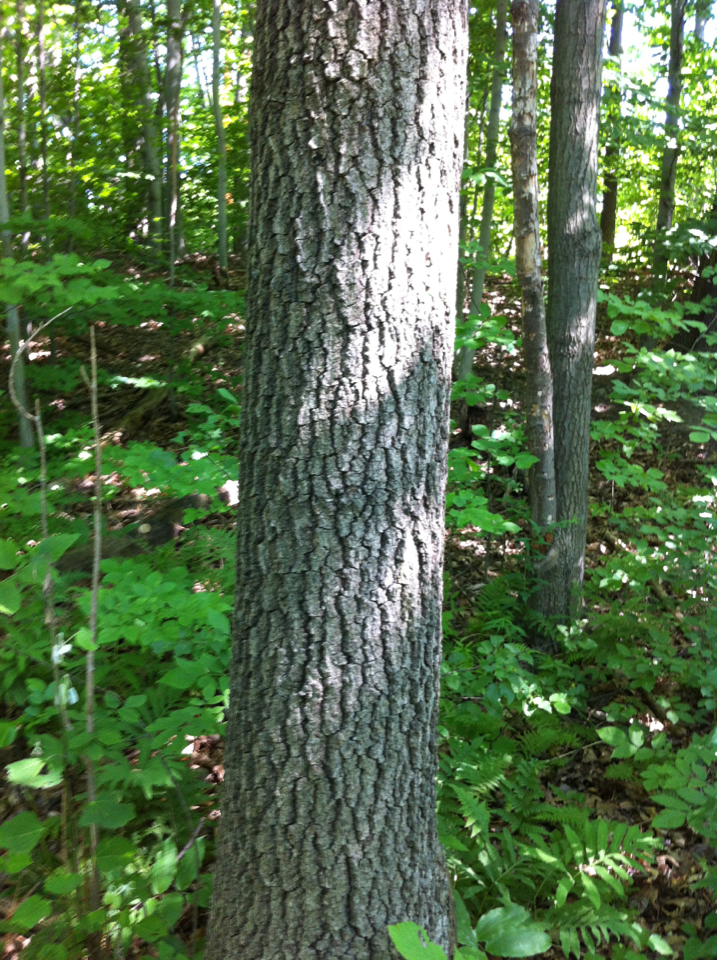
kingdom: Plantae
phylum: Tracheophyta
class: Magnoliopsida
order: Fagales
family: Fagaceae
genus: Quercus
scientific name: Quercus velutina
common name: Black oak
